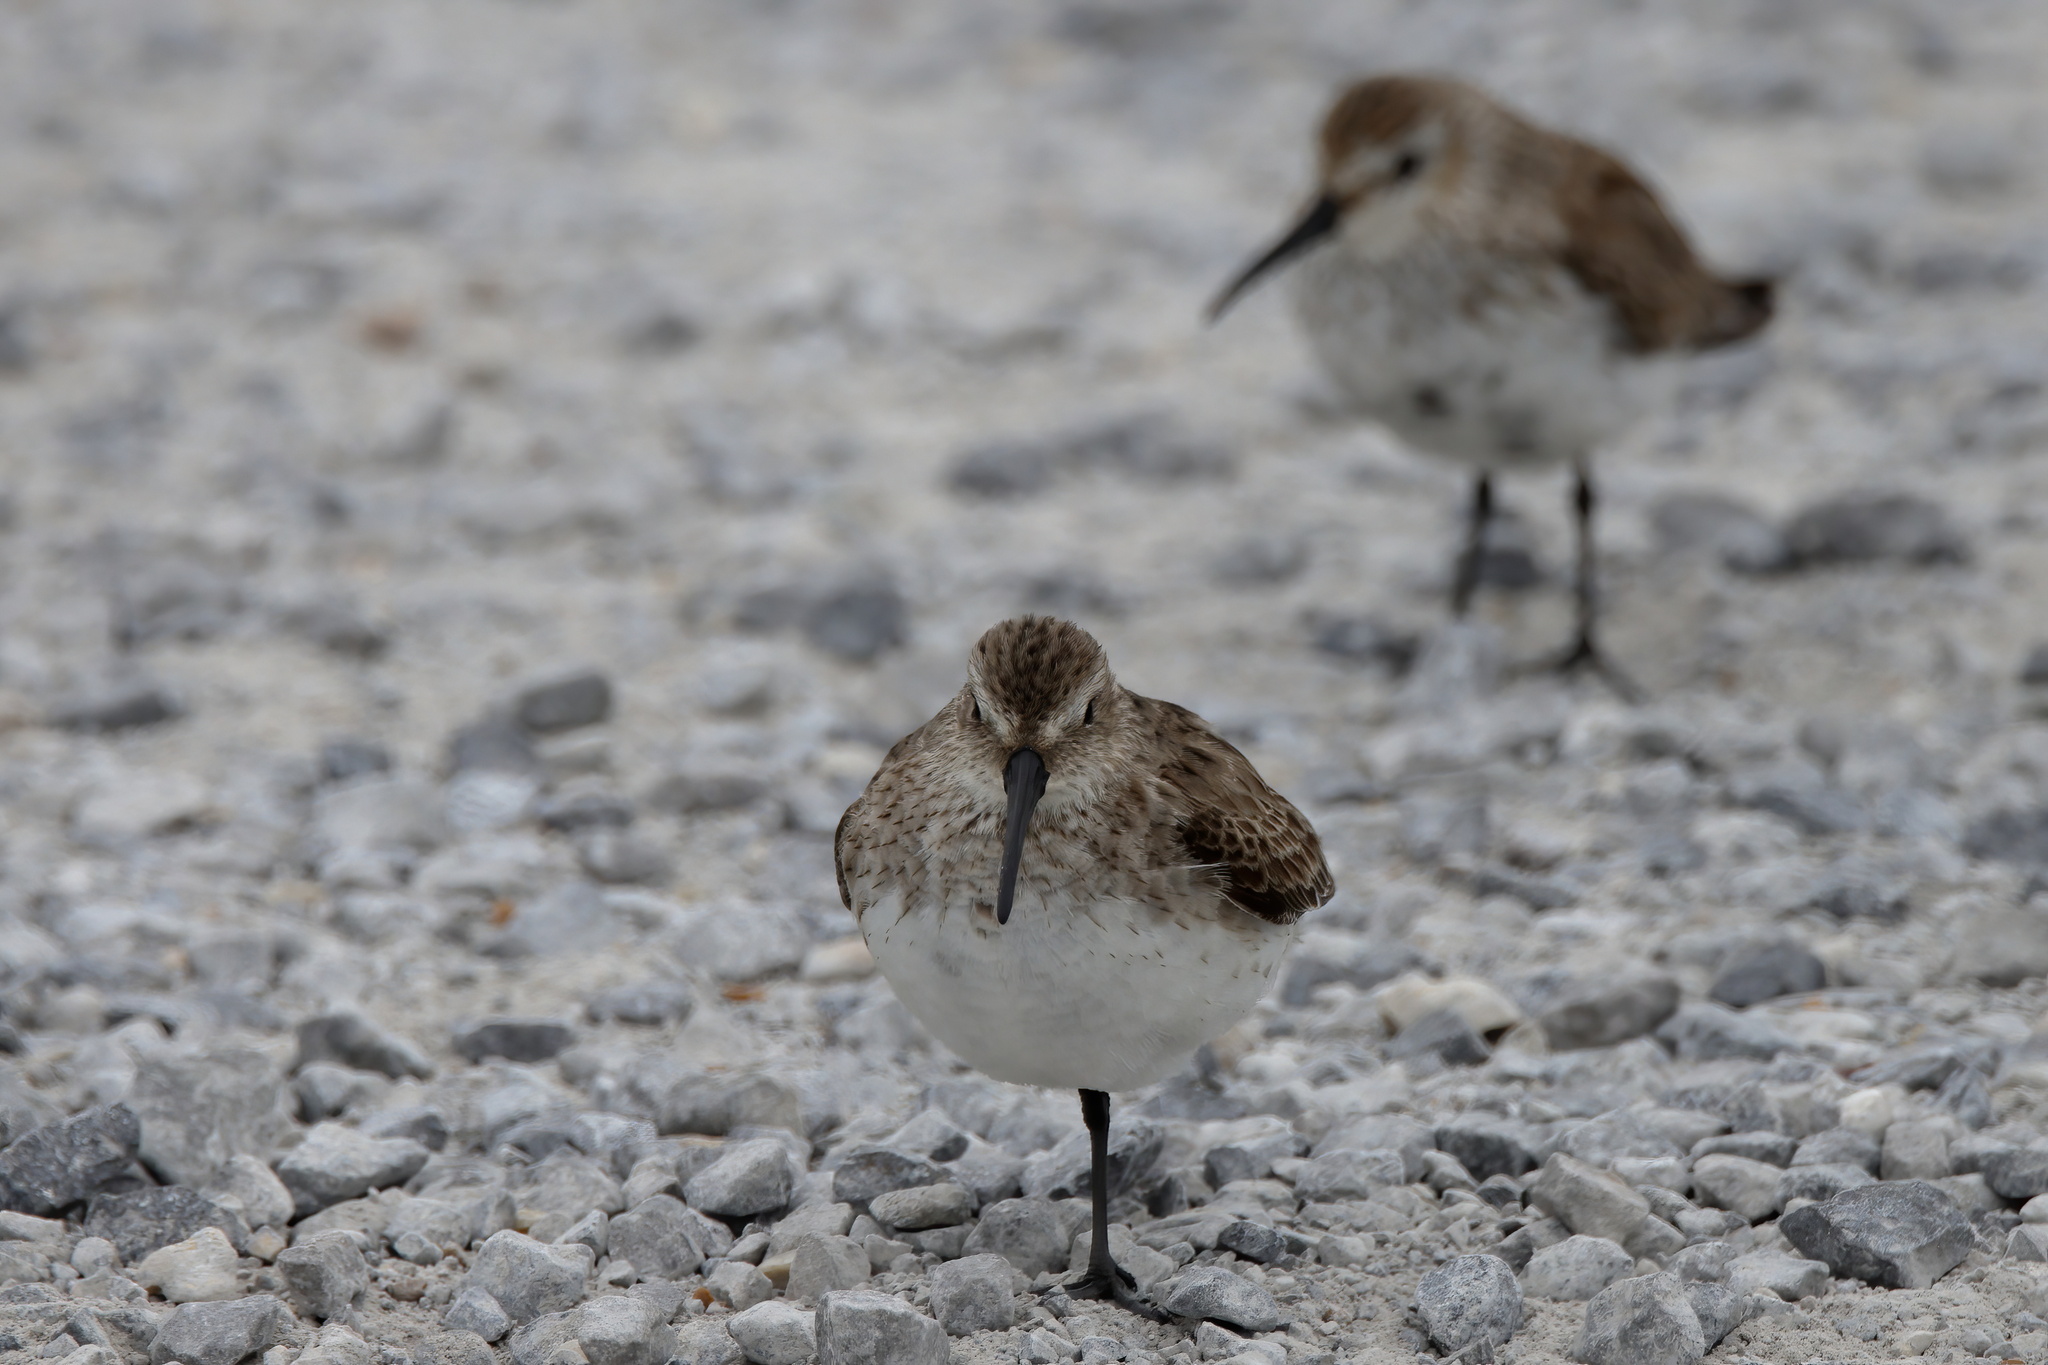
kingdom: Animalia
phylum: Chordata
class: Aves
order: Charadriiformes
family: Scolopacidae
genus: Calidris
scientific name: Calidris alpina
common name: Dunlin
